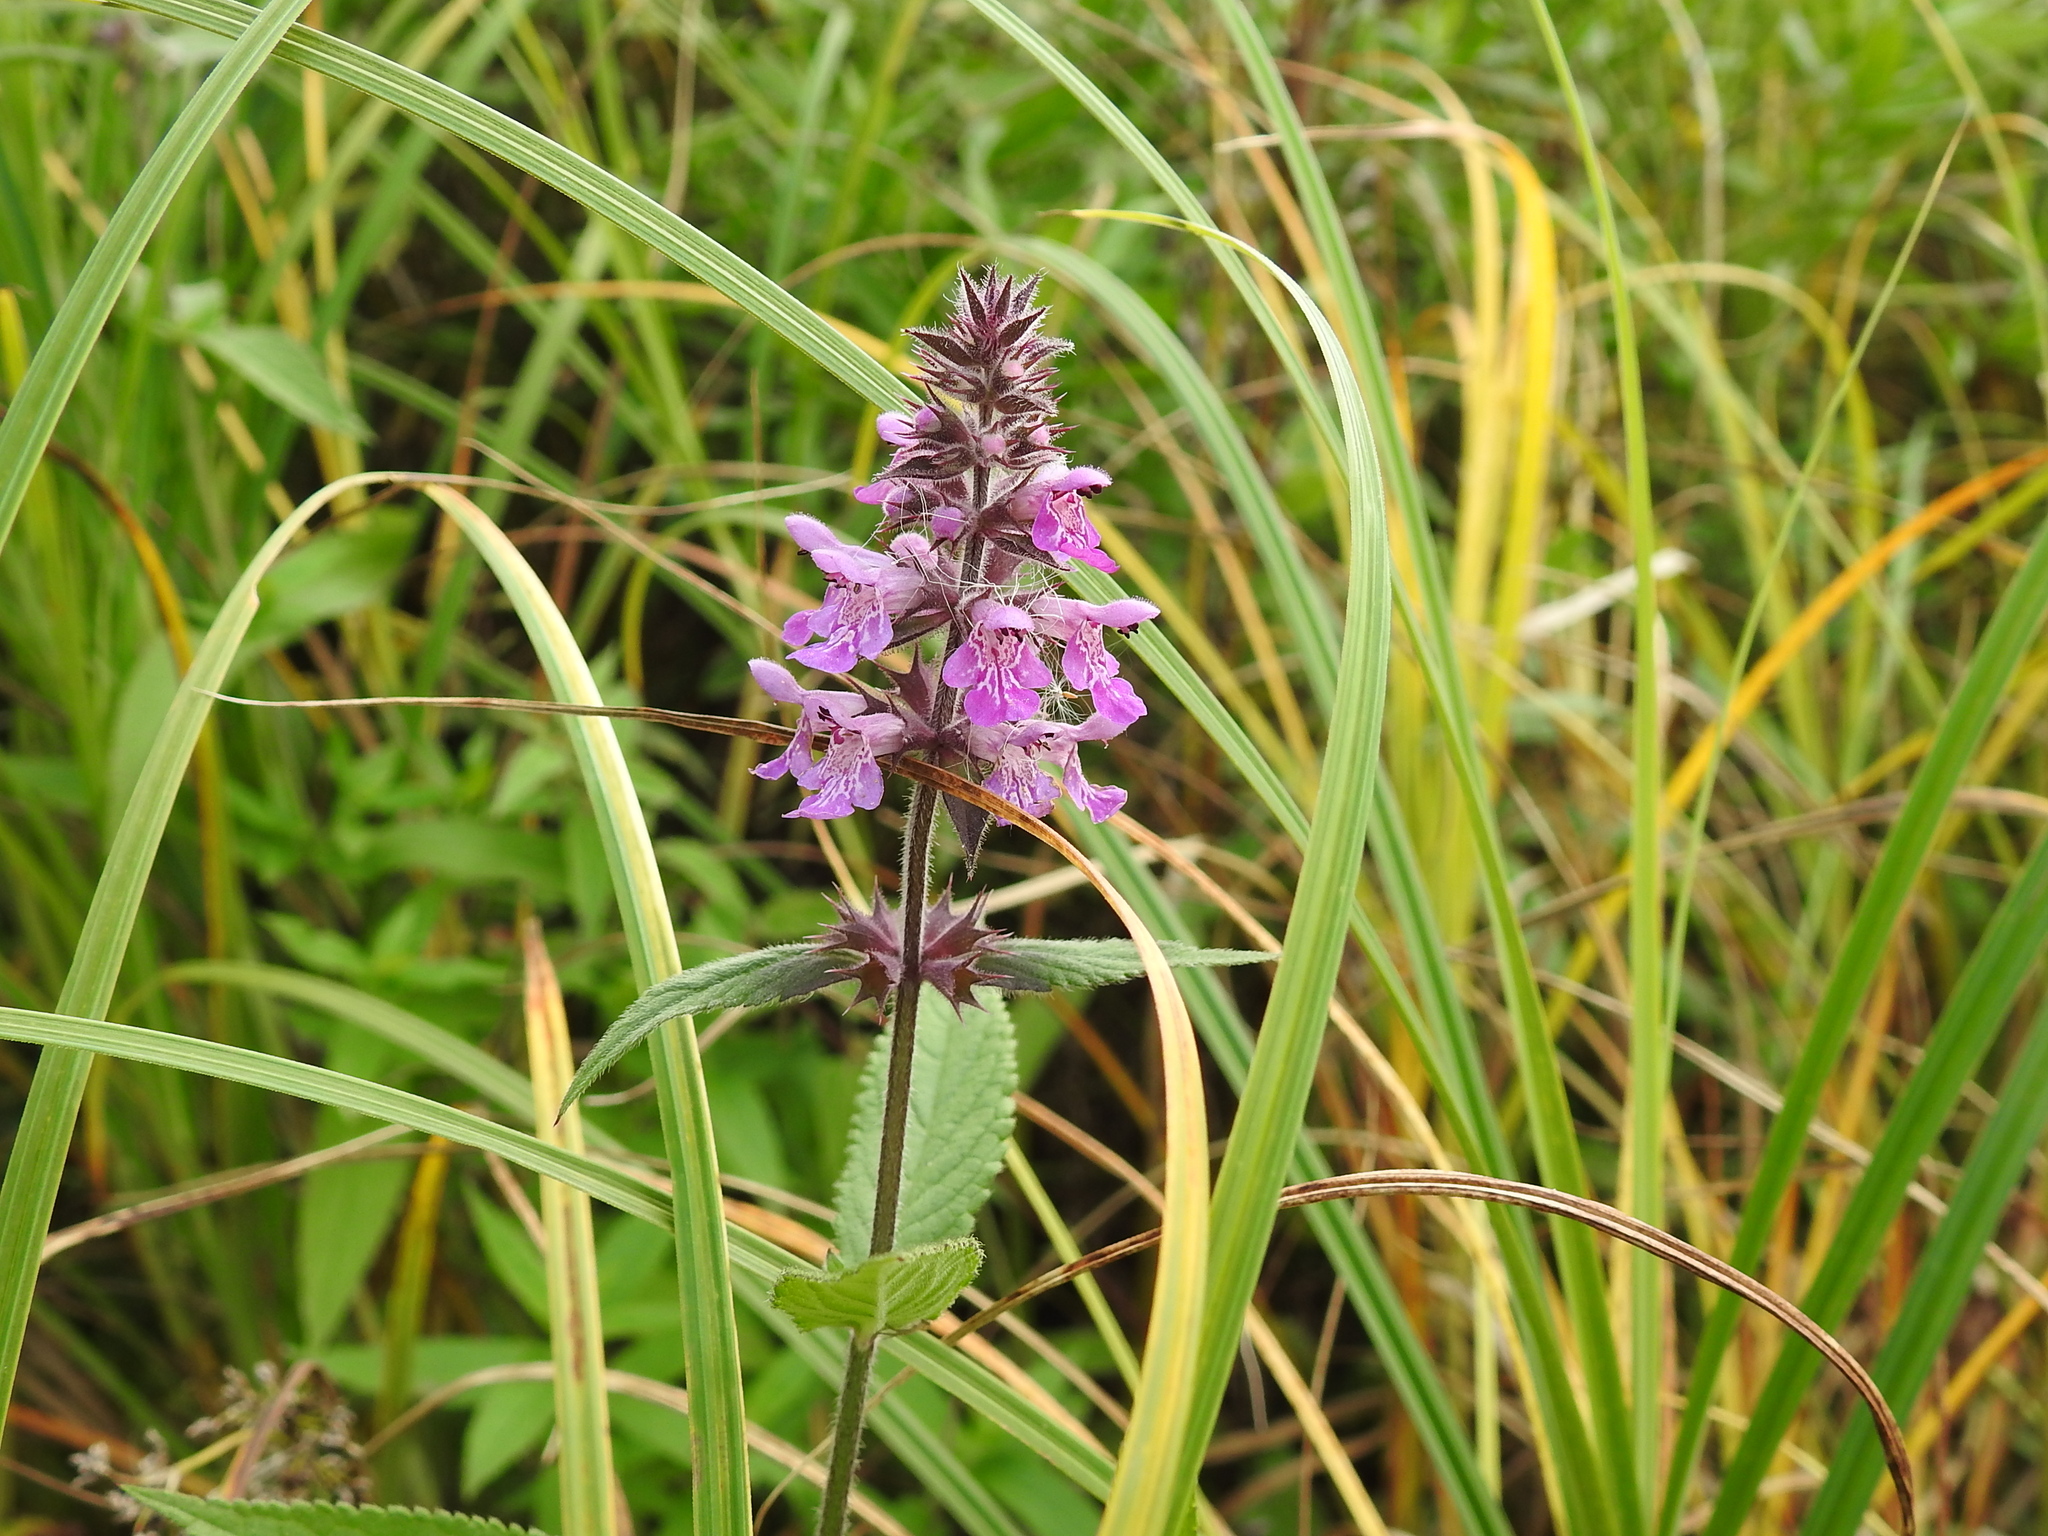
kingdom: Plantae
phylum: Tracheophyta
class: Magnoliopsida
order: Lamiales
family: Lamiaceae
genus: Stachys
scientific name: Stachys palustris
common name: Marsh woundwort
